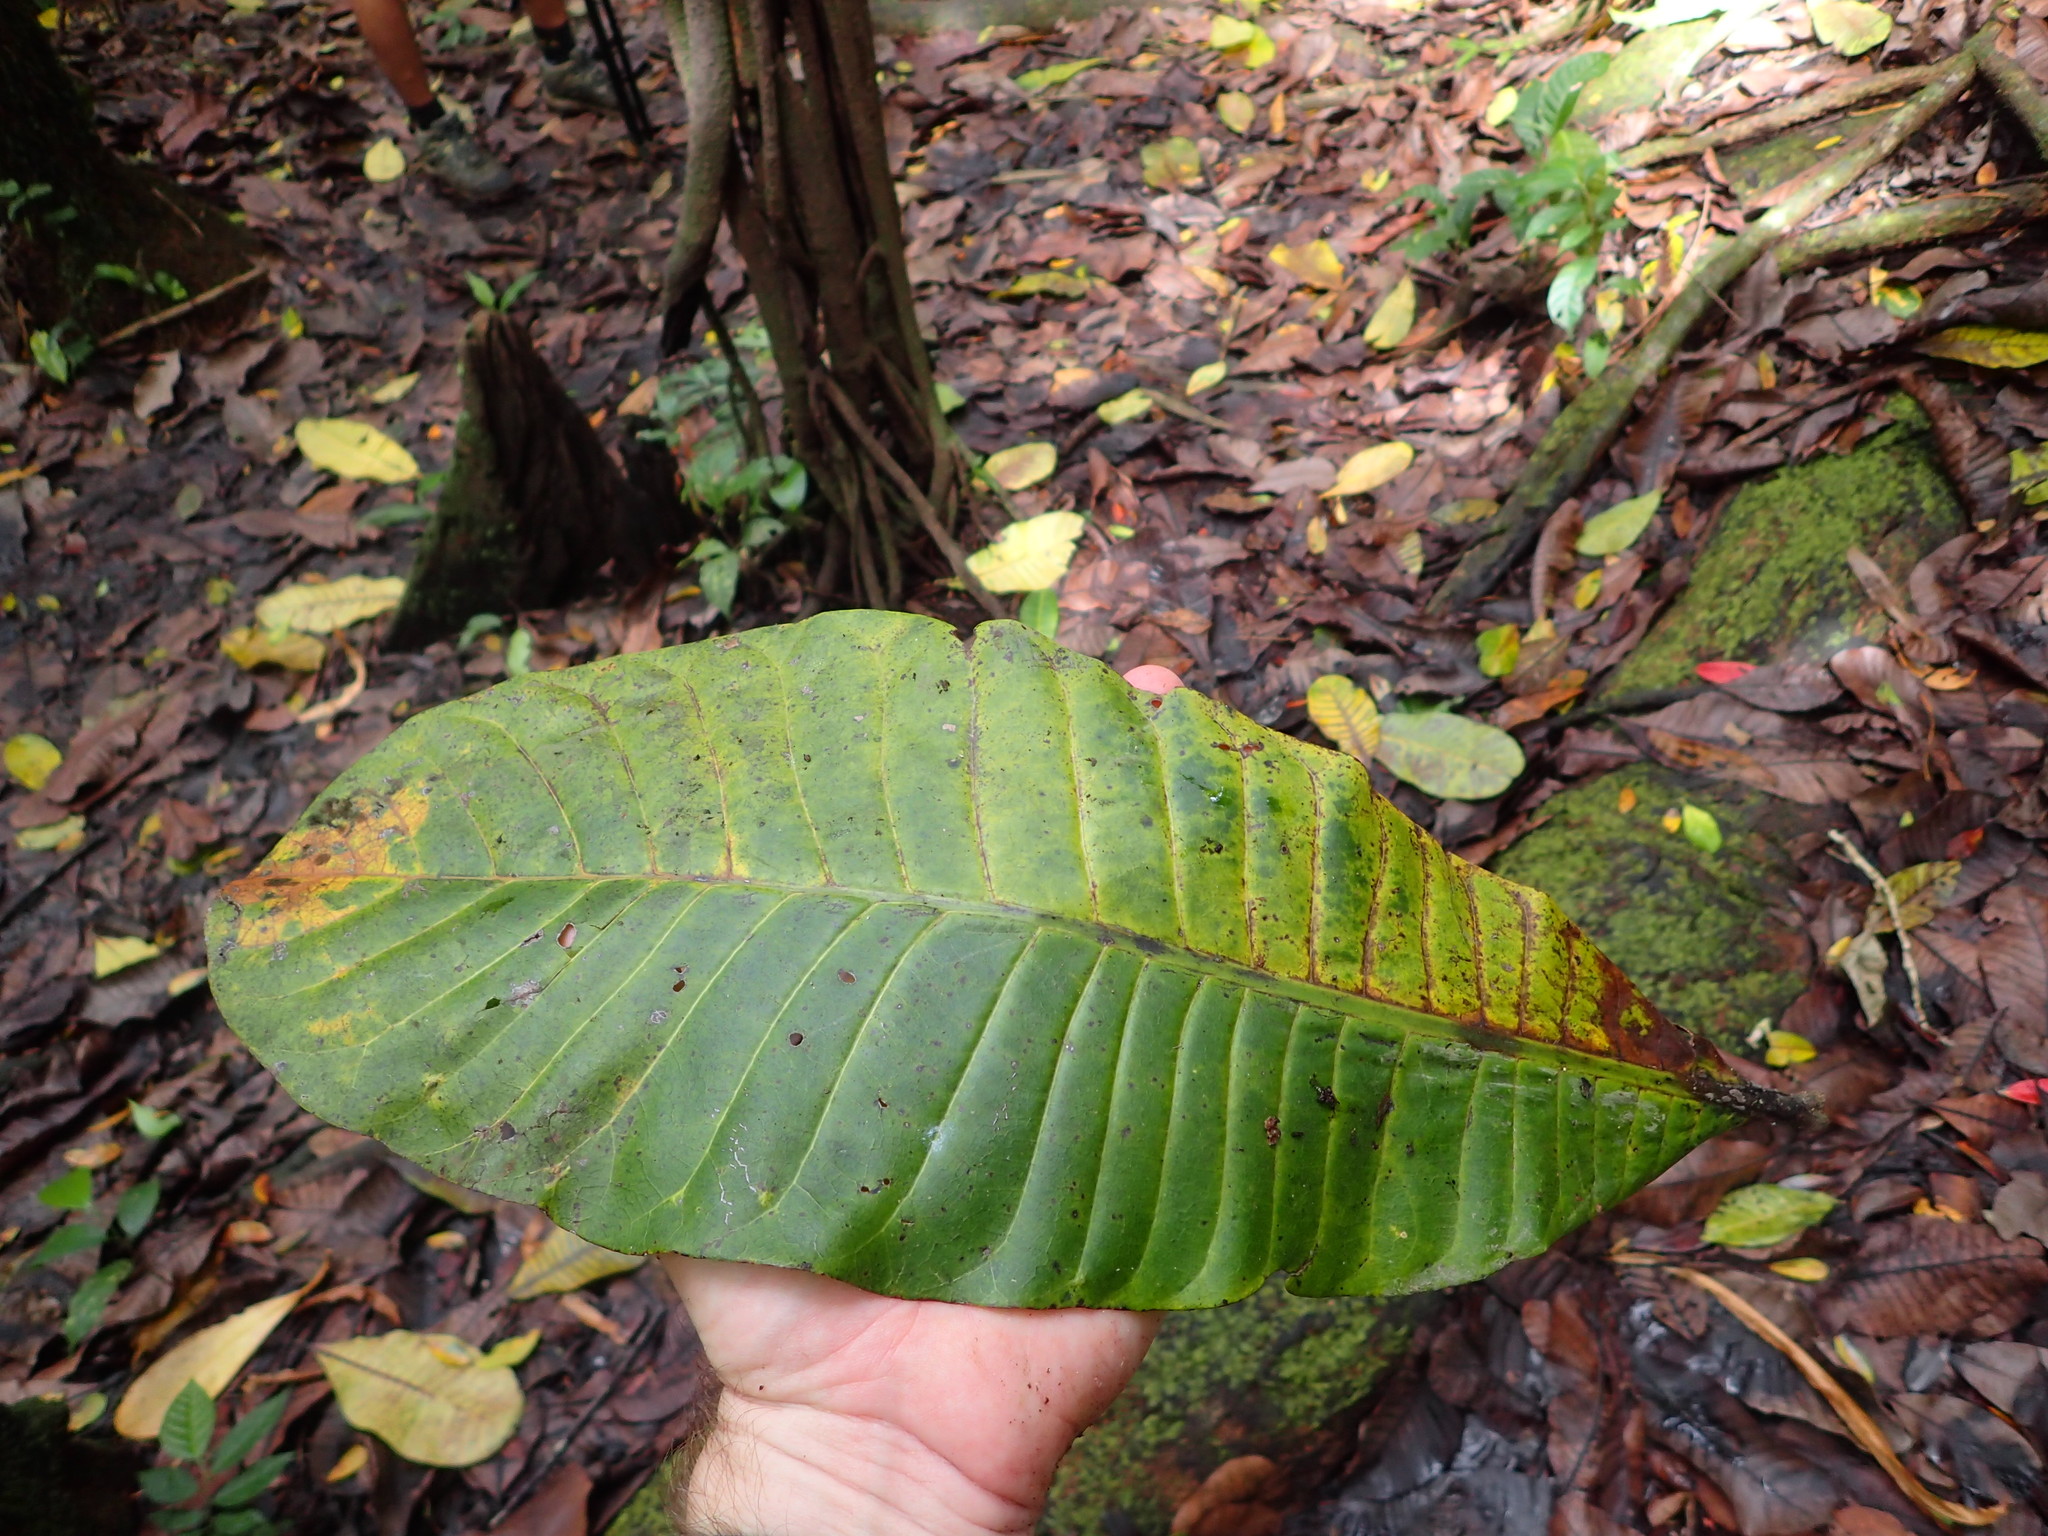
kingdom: Plantae
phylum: Tracheophyta
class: Magnoliopsida
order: Sapindales
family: Anacardiaceae
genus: Anacardium
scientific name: Anacardium excelsum
